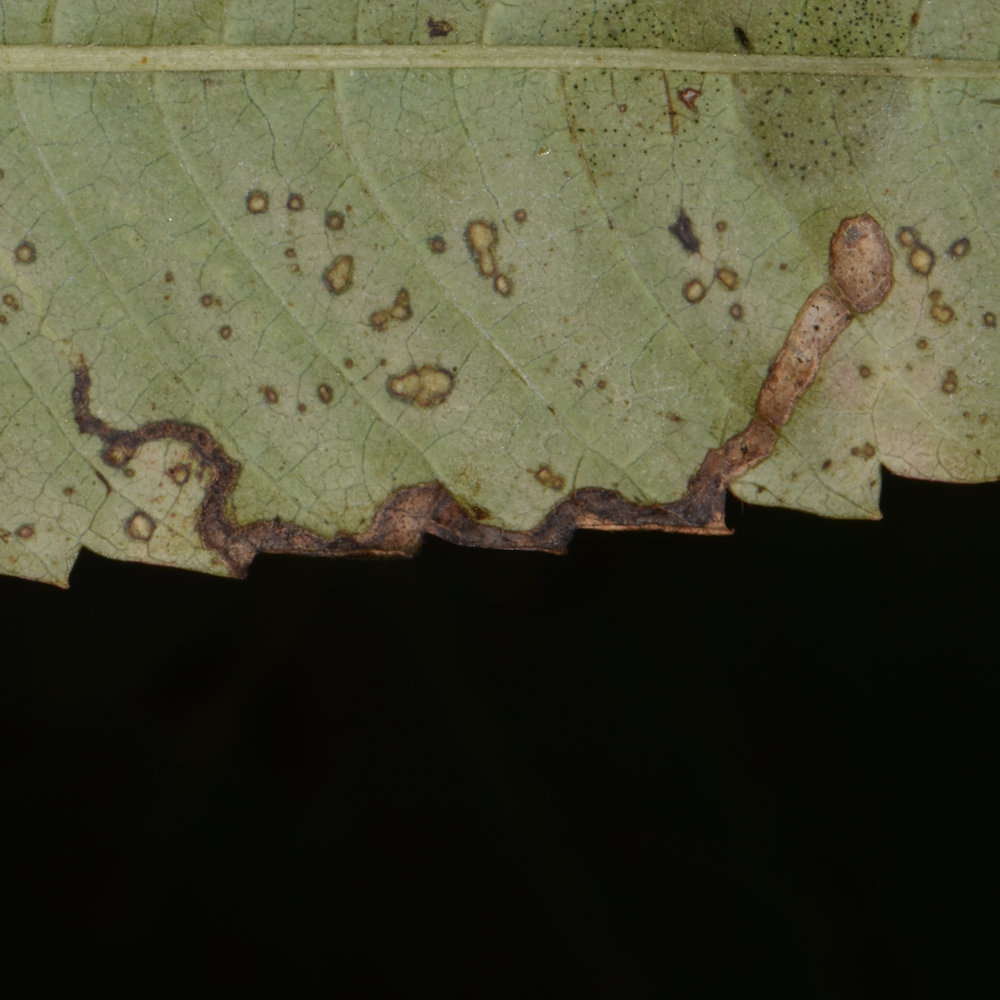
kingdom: Animalia
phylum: Arthropoda
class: Insecta
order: Lepidoptera
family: Nepticulidae
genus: Stigmella
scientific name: Stigmella intermedia
